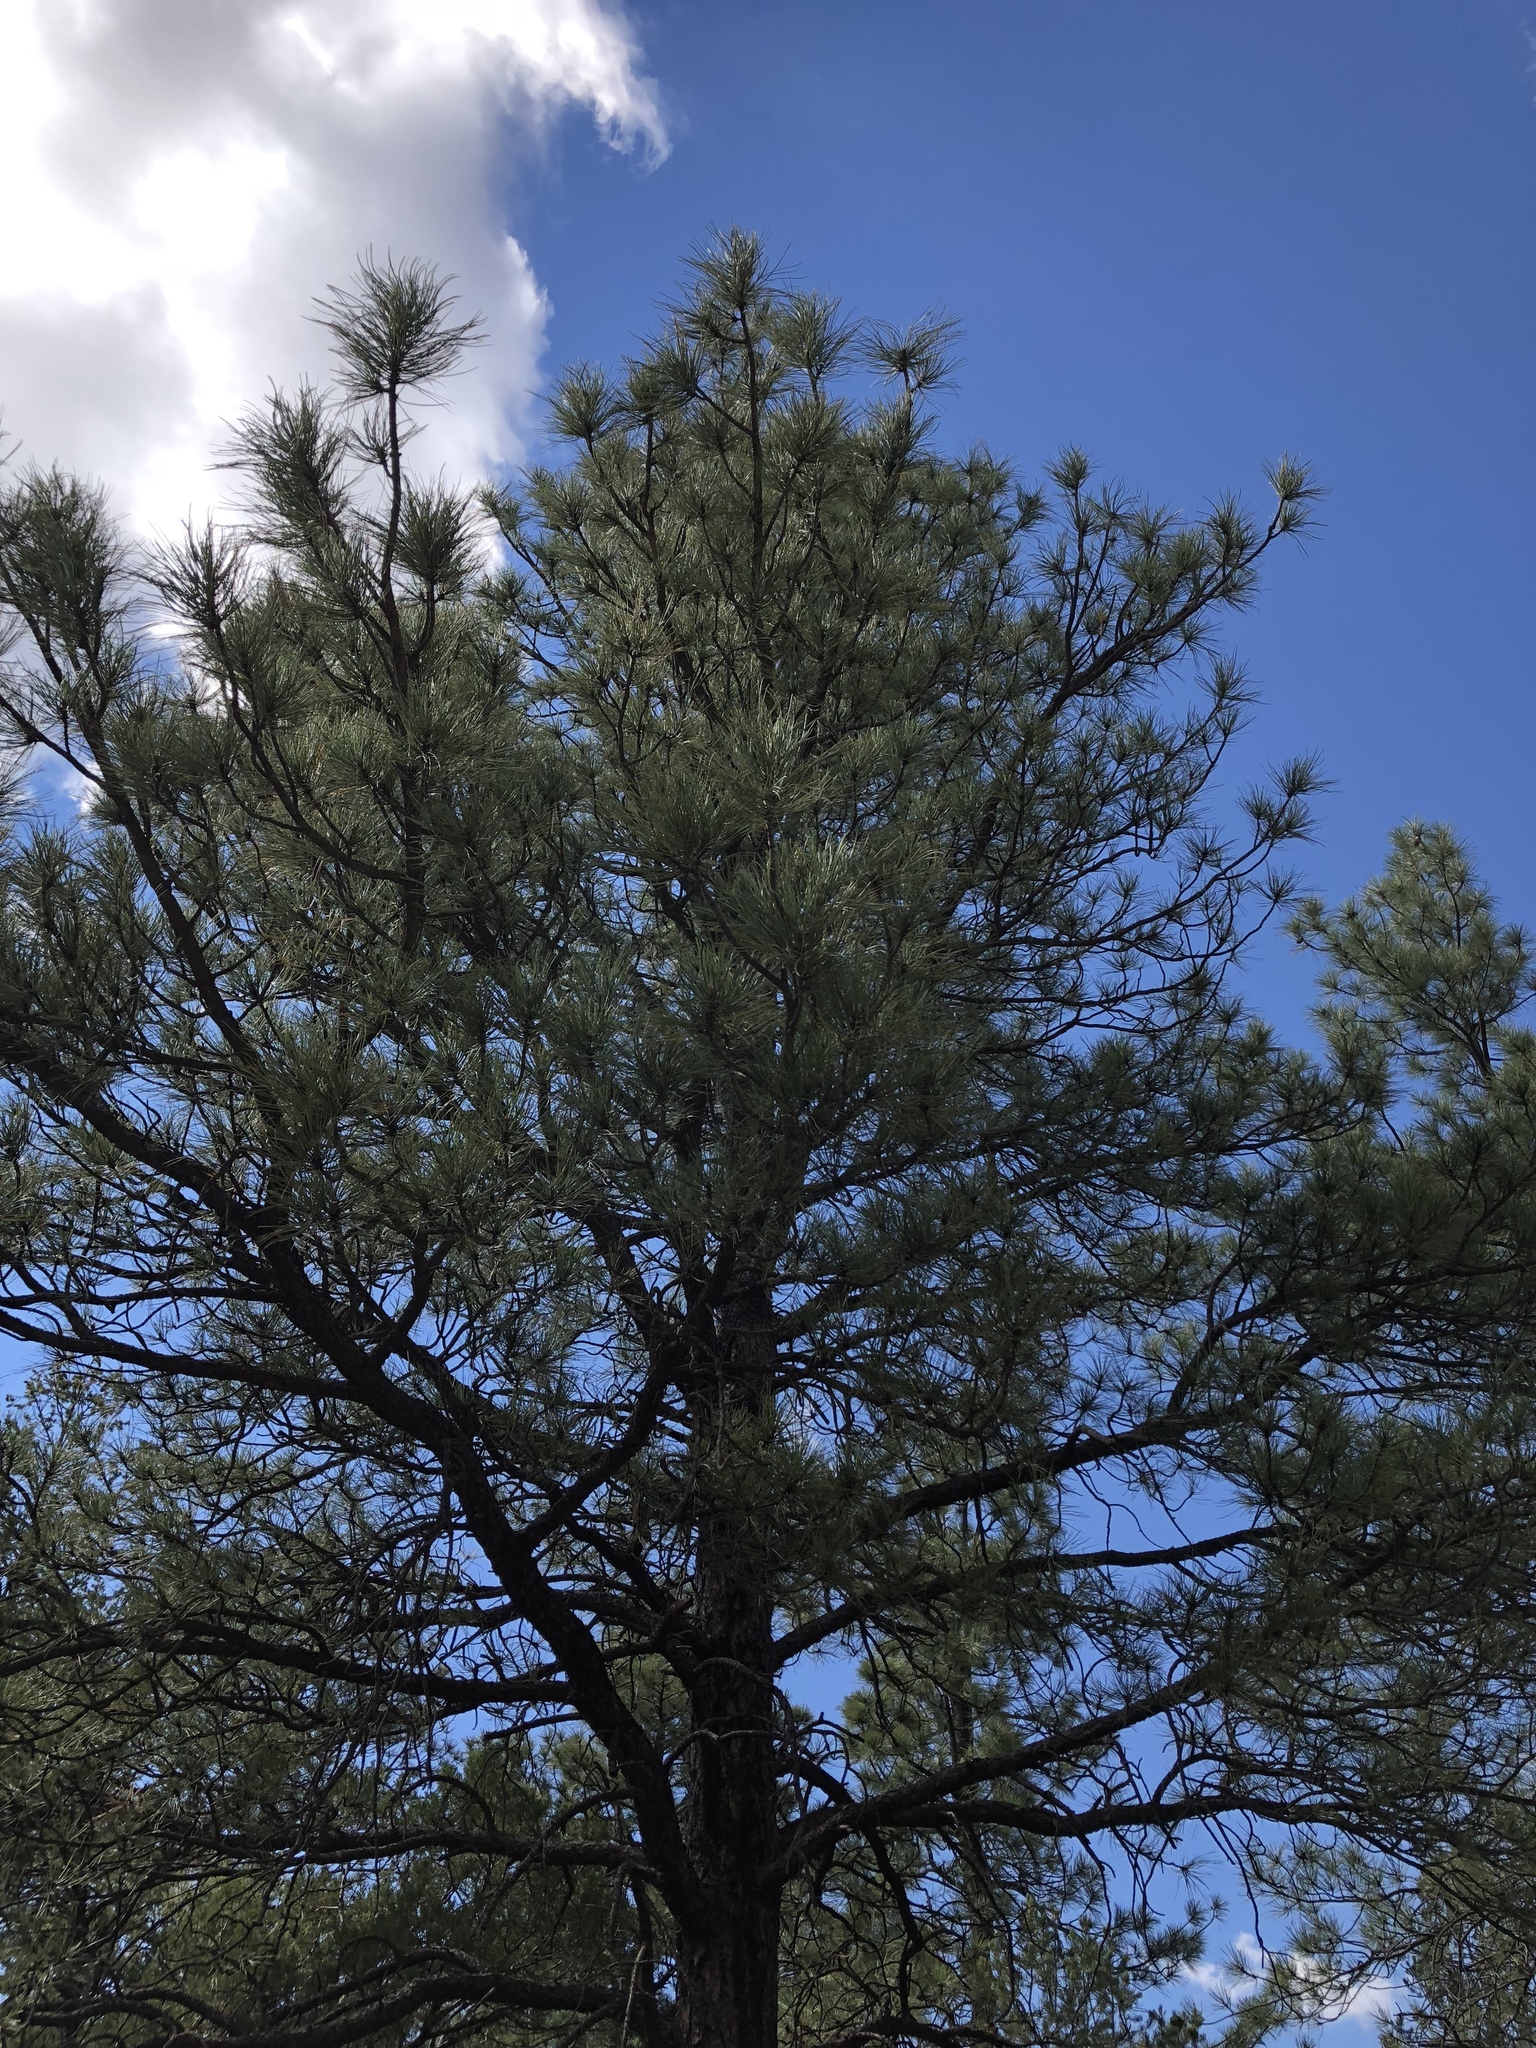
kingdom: Plantae
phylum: Tracheophyta
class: Pinopsida
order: Pinales
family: Pinaceae
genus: Pinus
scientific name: Pinus ponderosa
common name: Western yellow-pine
